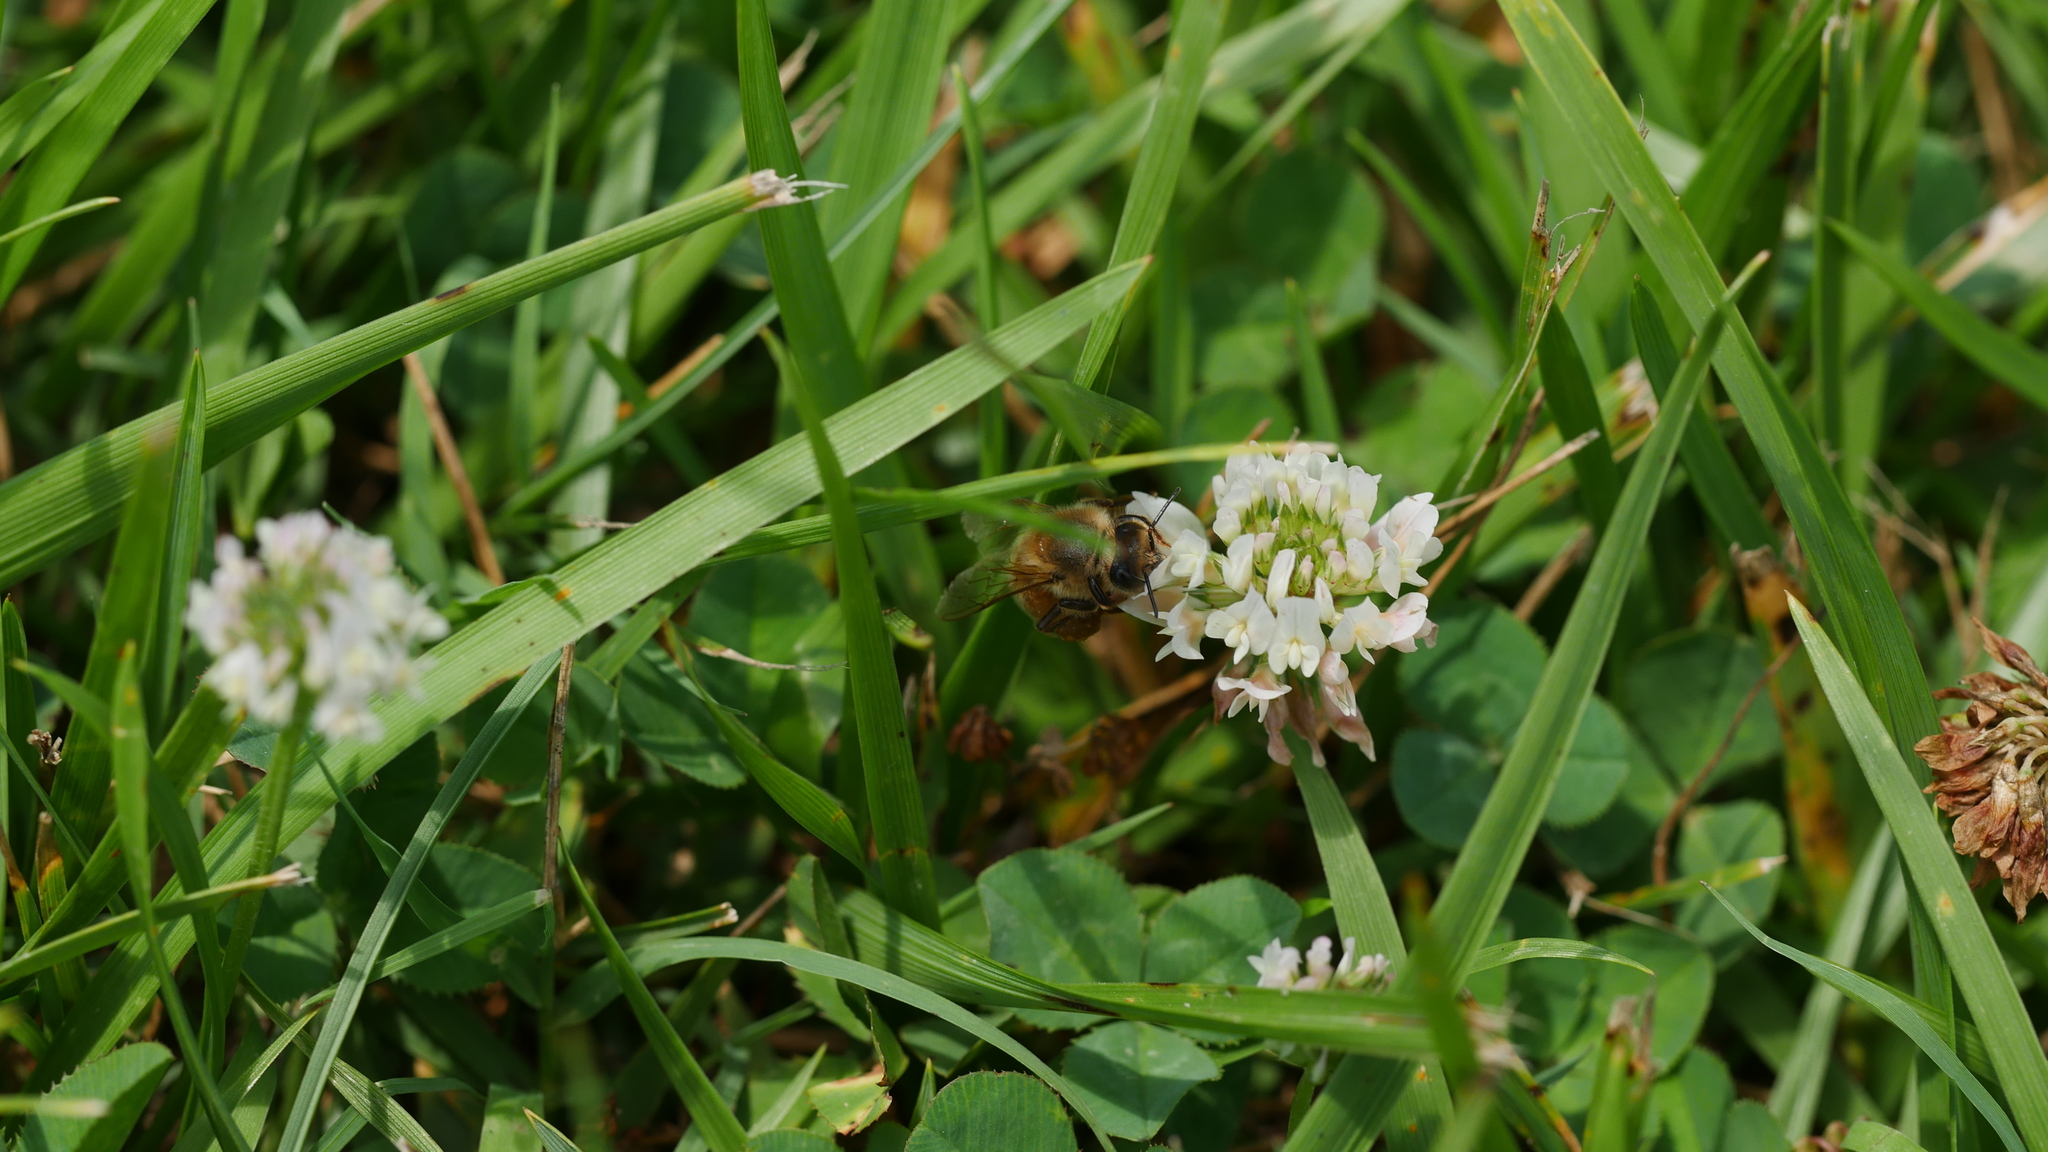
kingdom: Animalia
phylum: Arthropoda
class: Insecta
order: Hymenoptera
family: Apidae
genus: Apis
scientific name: Apis mellifera
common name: Honey bee
